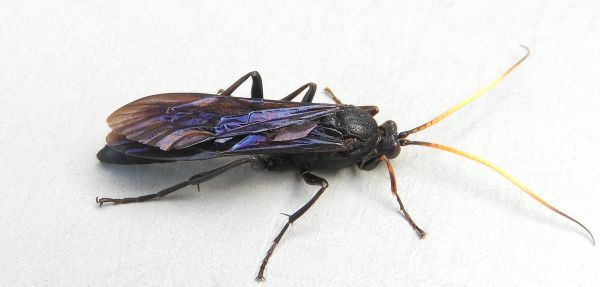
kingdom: Animalia
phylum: Arthropoda
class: Insecta
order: Hymenoptera
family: Ichneumonidae
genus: Ichneumon
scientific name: Ichneumon centrator
